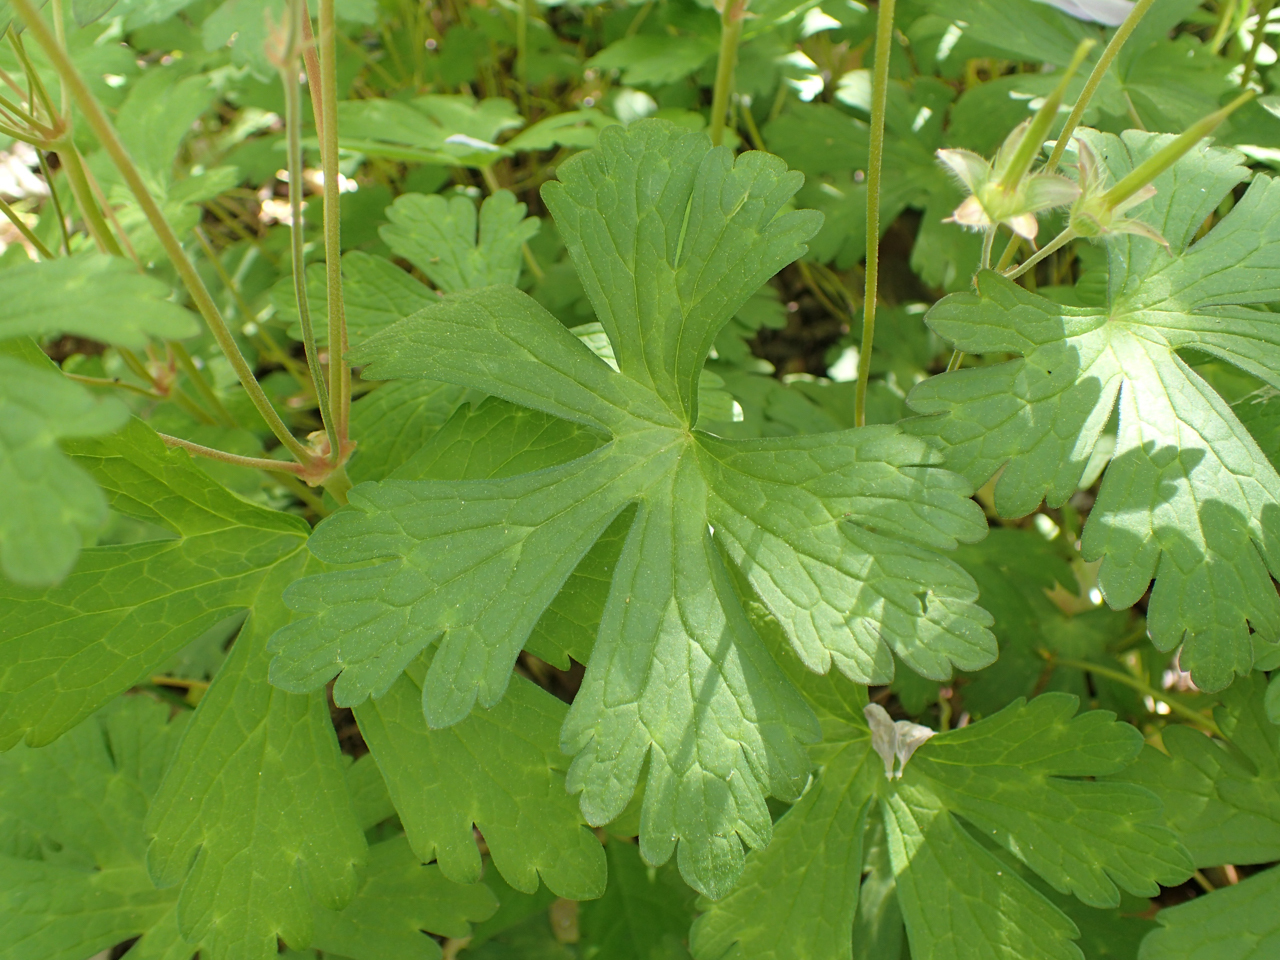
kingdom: Plantae
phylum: Tracheophyta
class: Magnoliopsida
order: Geraniales
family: Geraniaceae
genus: Geranium
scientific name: Geranium maculatum
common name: Spotted geranium
